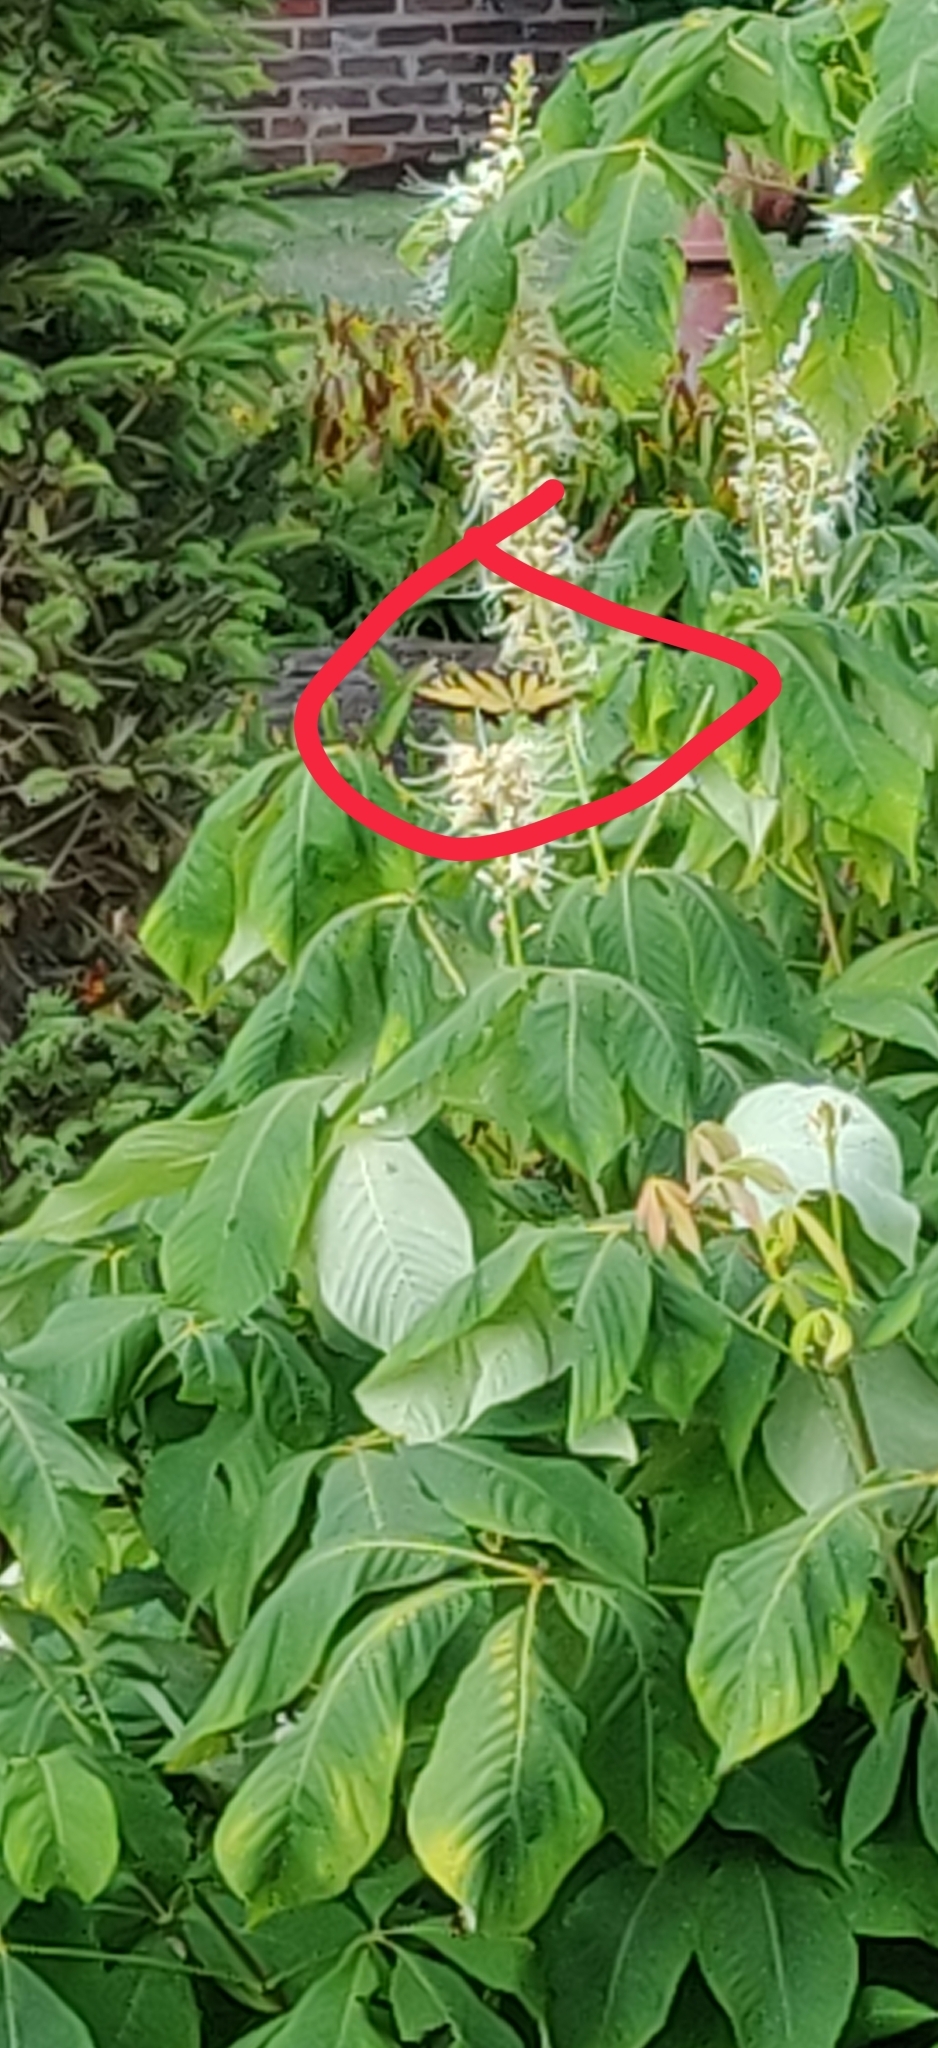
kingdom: Animalia
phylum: Arthropoda
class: Insecta
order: Lepidoptera
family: Papilionidae
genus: Papilio
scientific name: Papilio glaucus
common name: Tiger swallowtail
